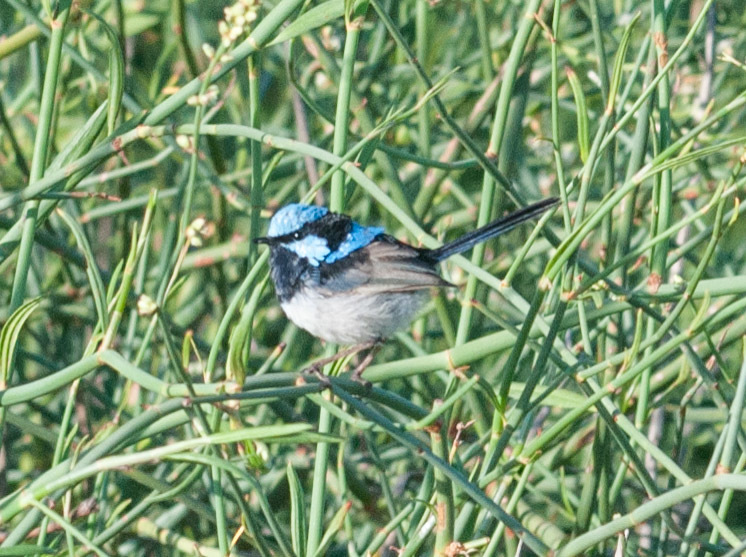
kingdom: Animalia
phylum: Chordata
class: Aves
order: Passeriformes
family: Maluridae
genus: Malurus
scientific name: Malurus cyaneus
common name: Superb fairywren
